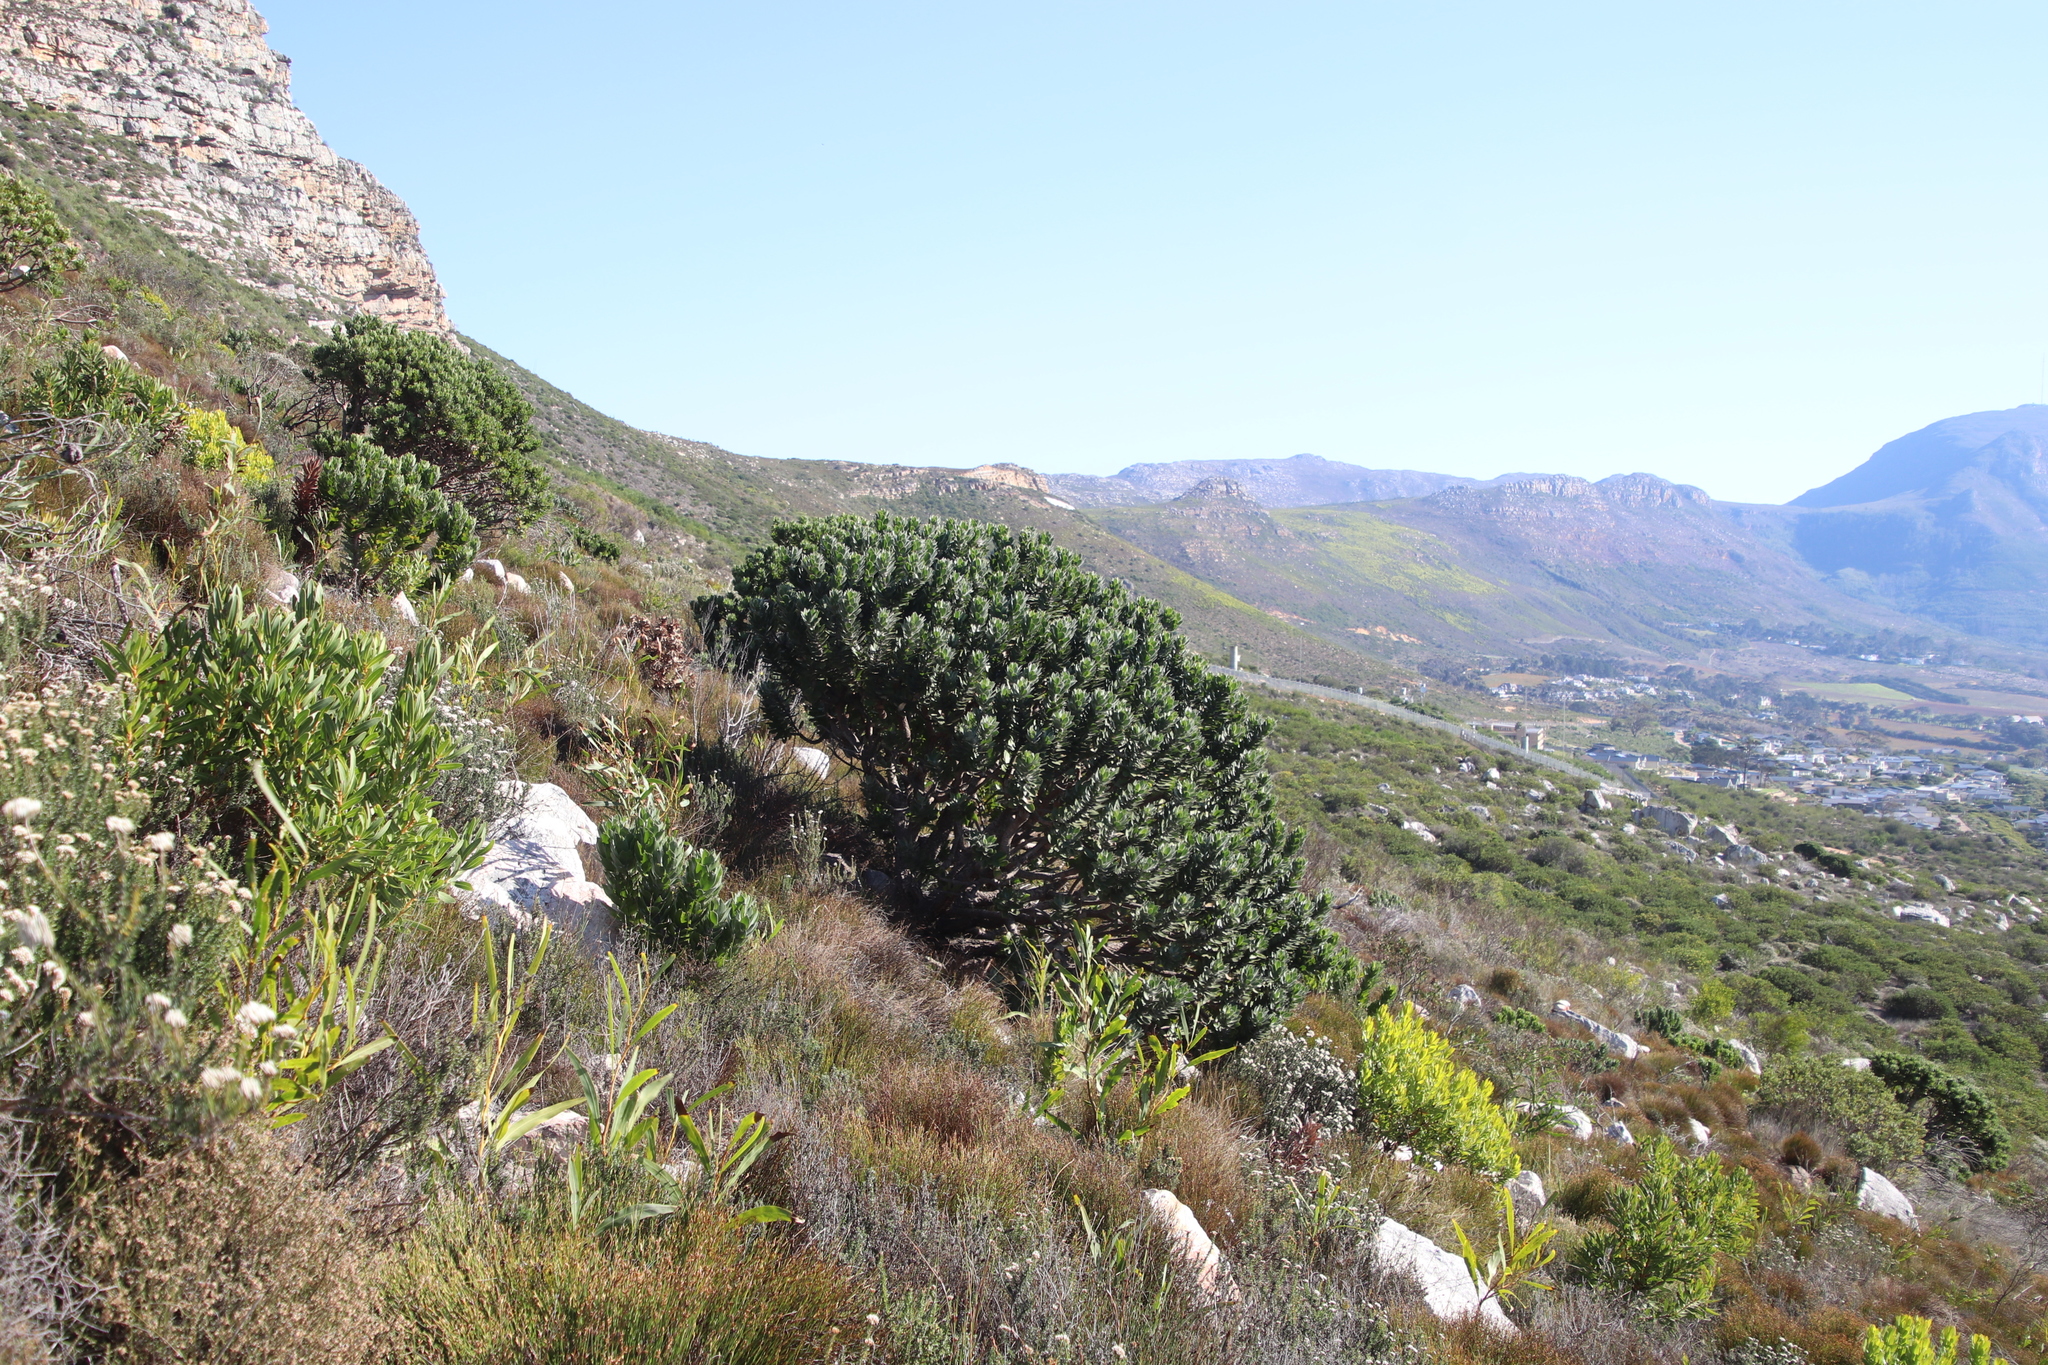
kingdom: Plantae
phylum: Tracheophyta
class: Magnoliopsida
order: Proteales
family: Proteaceae
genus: Leucospermum
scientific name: Leucospermum conocarpodendron
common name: Tree pincushion
